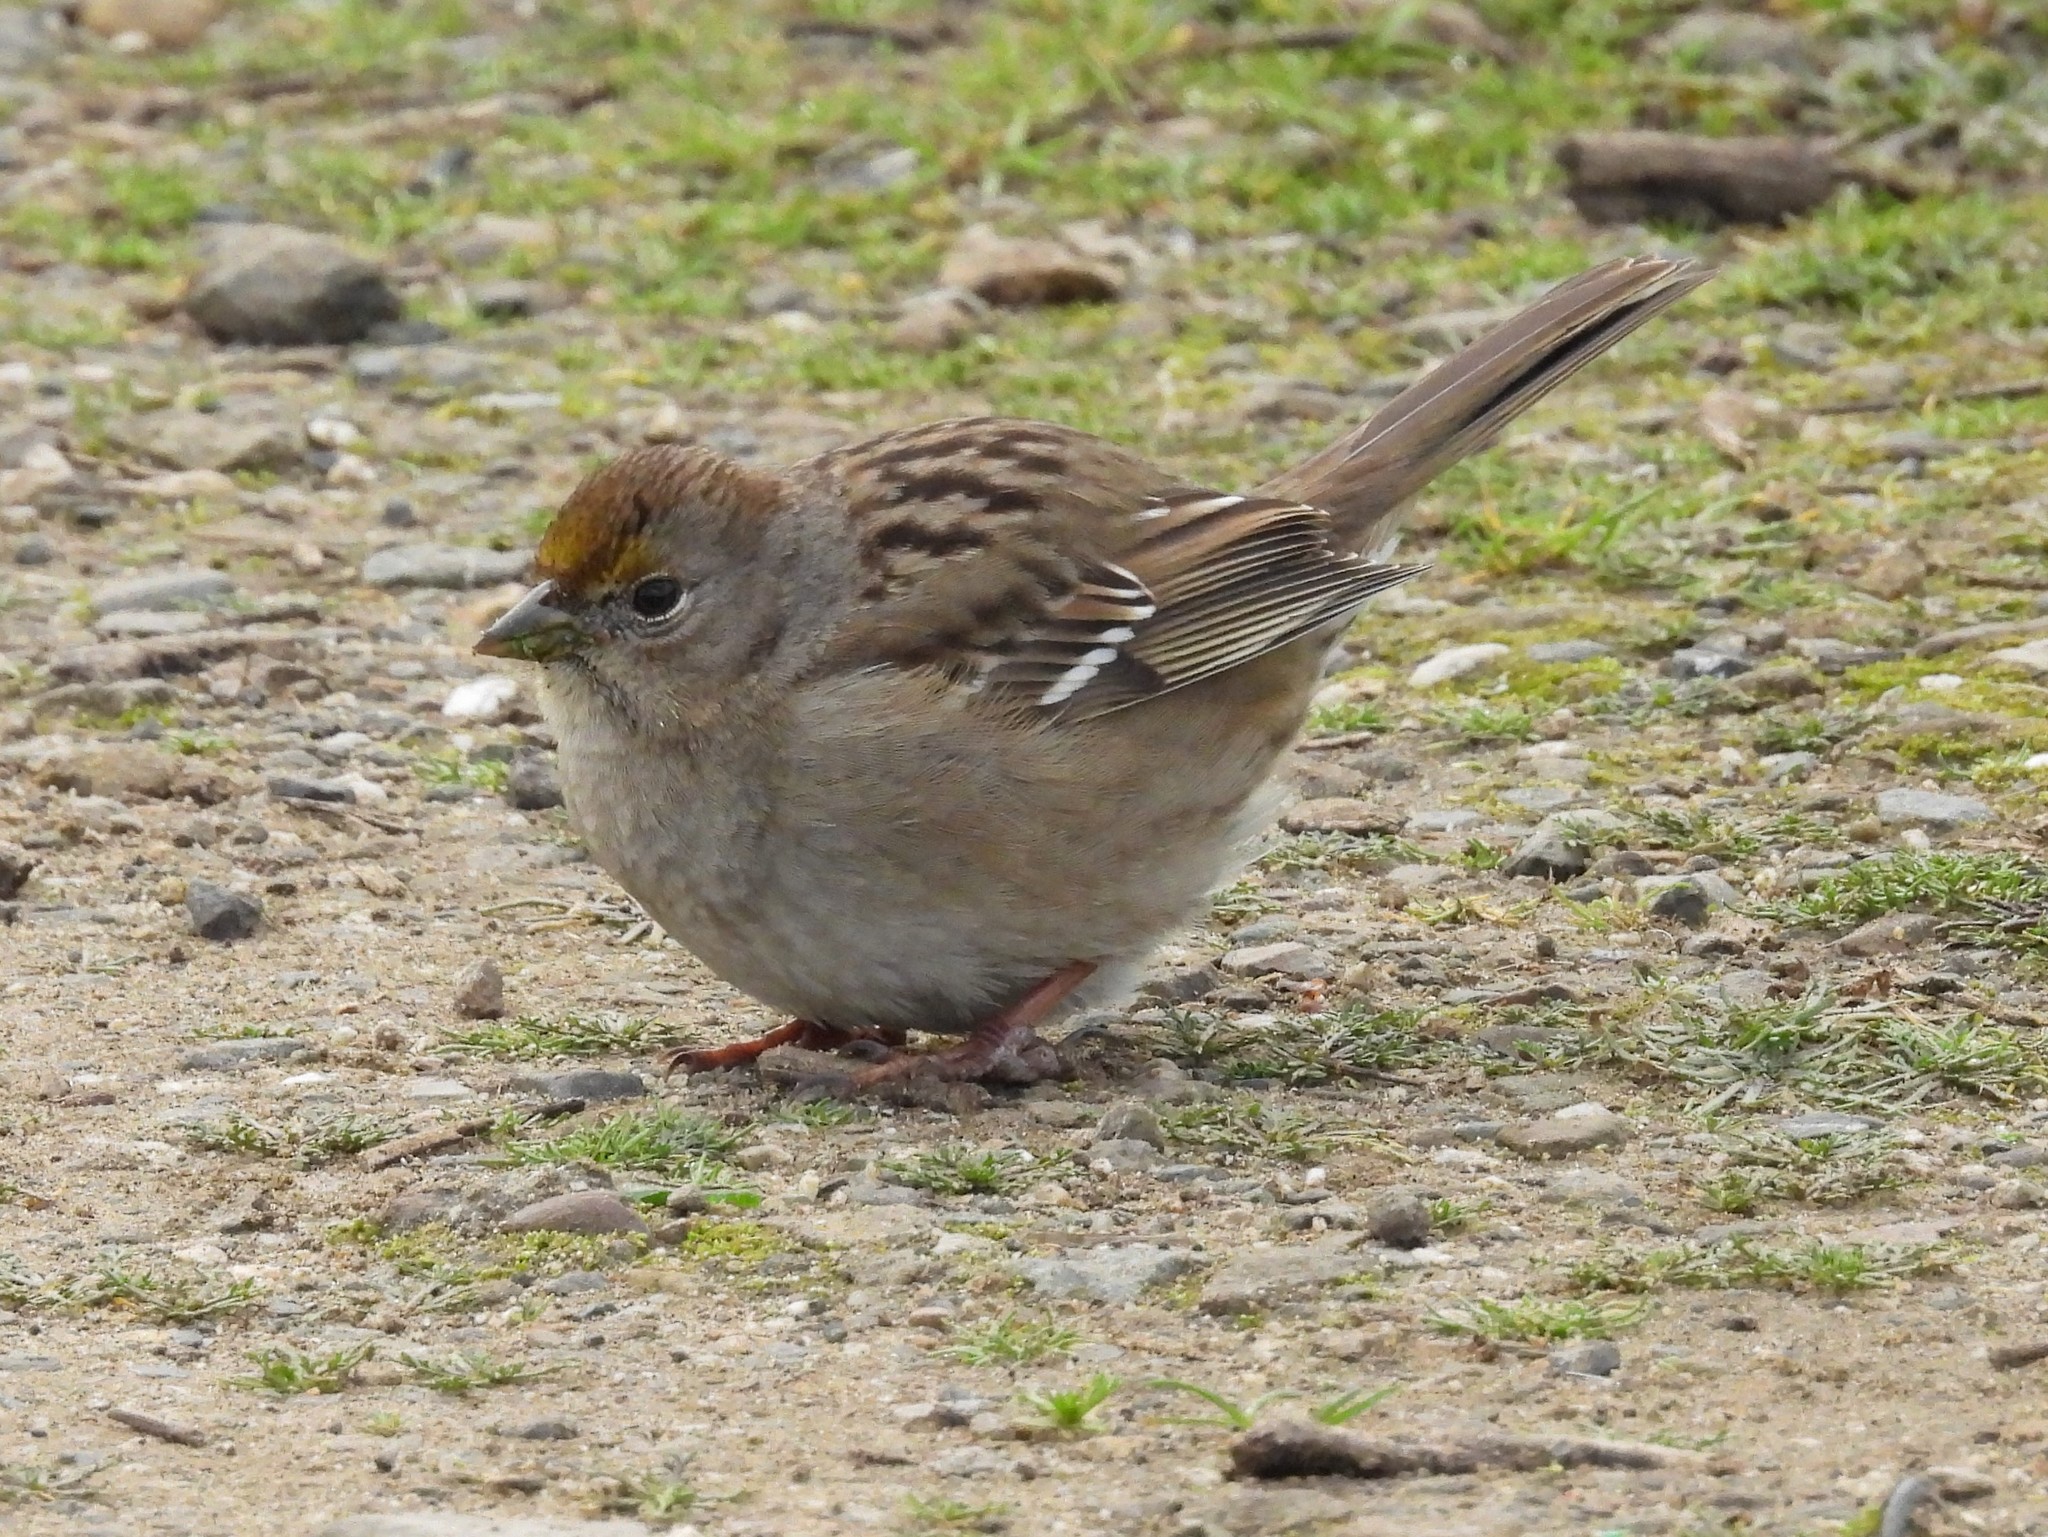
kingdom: Animalia
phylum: Chordata
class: Aves
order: Passeriformes
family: Passerellidae
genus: Zonotrichia
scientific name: Zonotrichia atricapilla
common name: Golden-crowned sparrow
